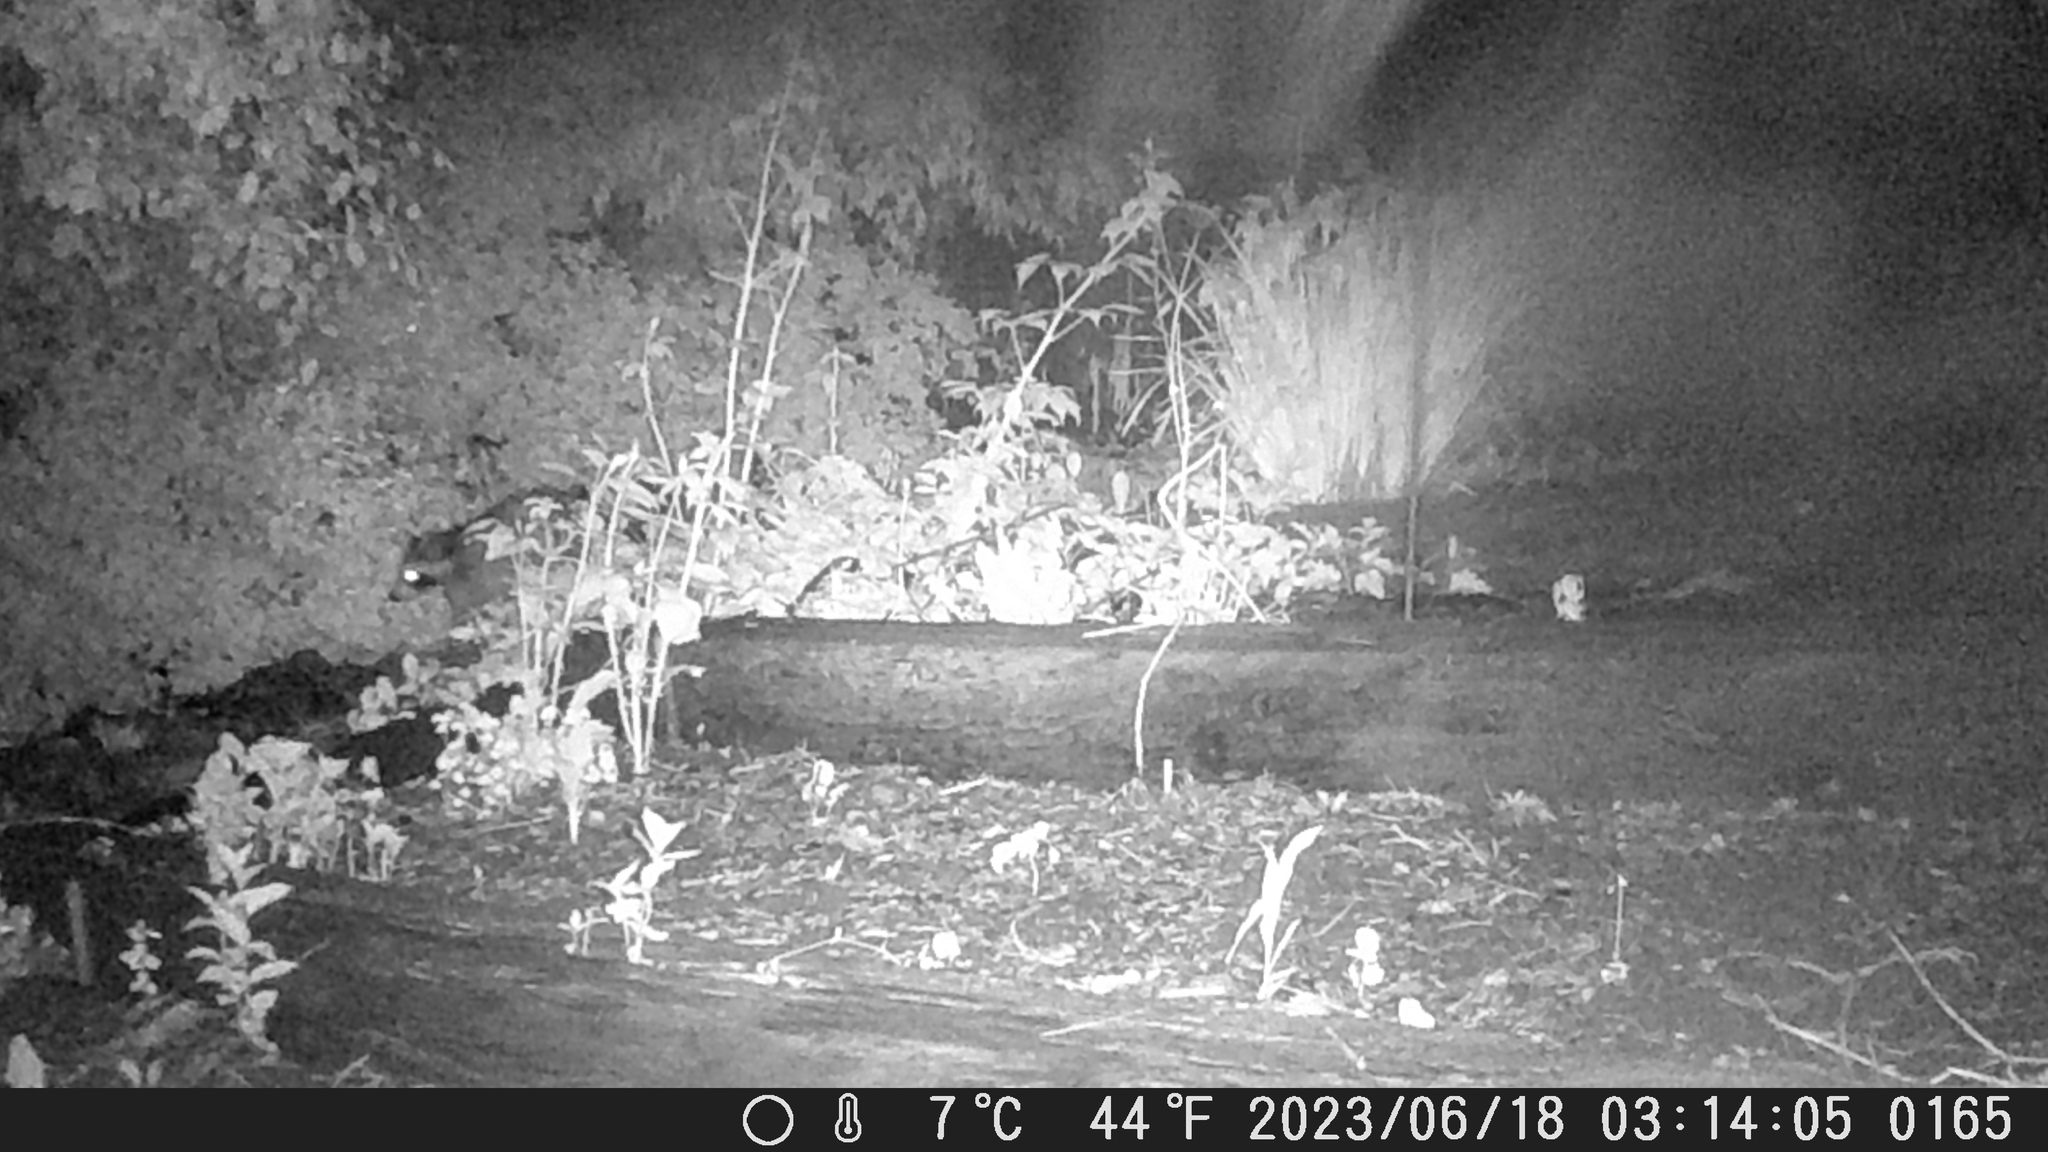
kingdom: Animalia
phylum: Chordata
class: Mammalia
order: Carnivora
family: Procyonidae
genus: Procyon
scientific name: Procyon lotor
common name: Raccoon
